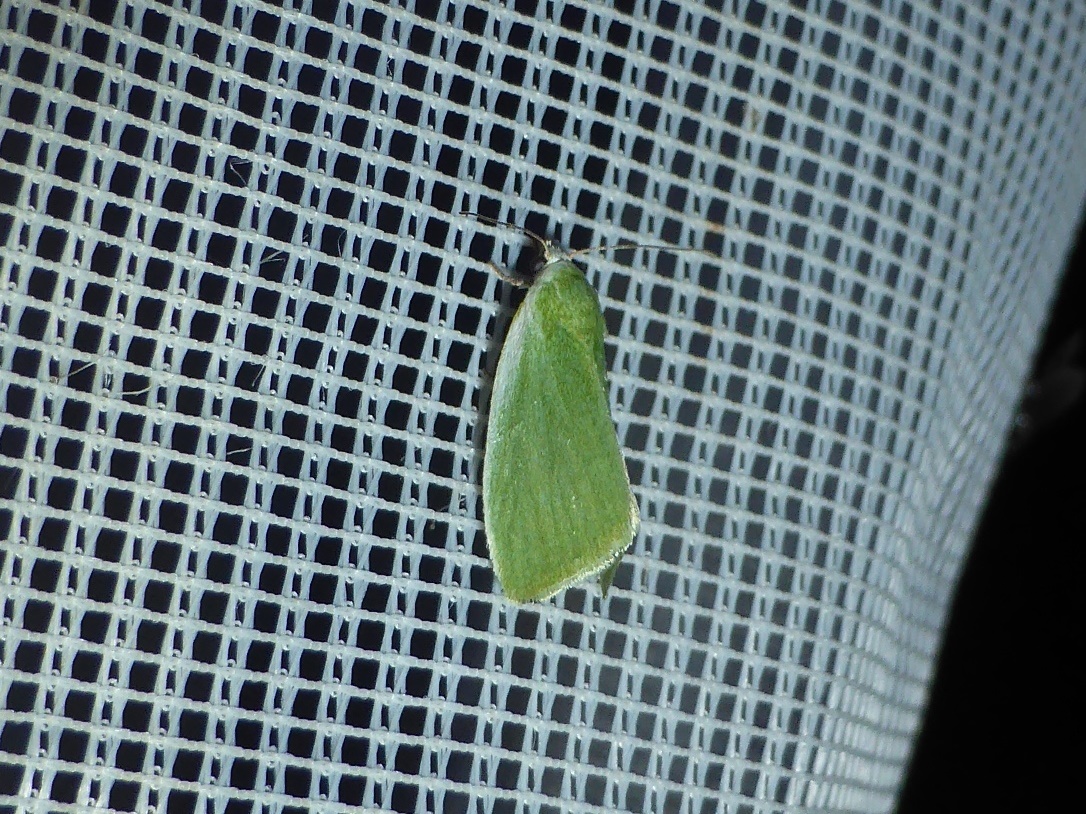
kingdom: Animalia
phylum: Arthropoda
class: Insecta
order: Lepidoptera
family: Nolidae
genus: Earias
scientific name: Earias clorana
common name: Cream-bordered green pea
